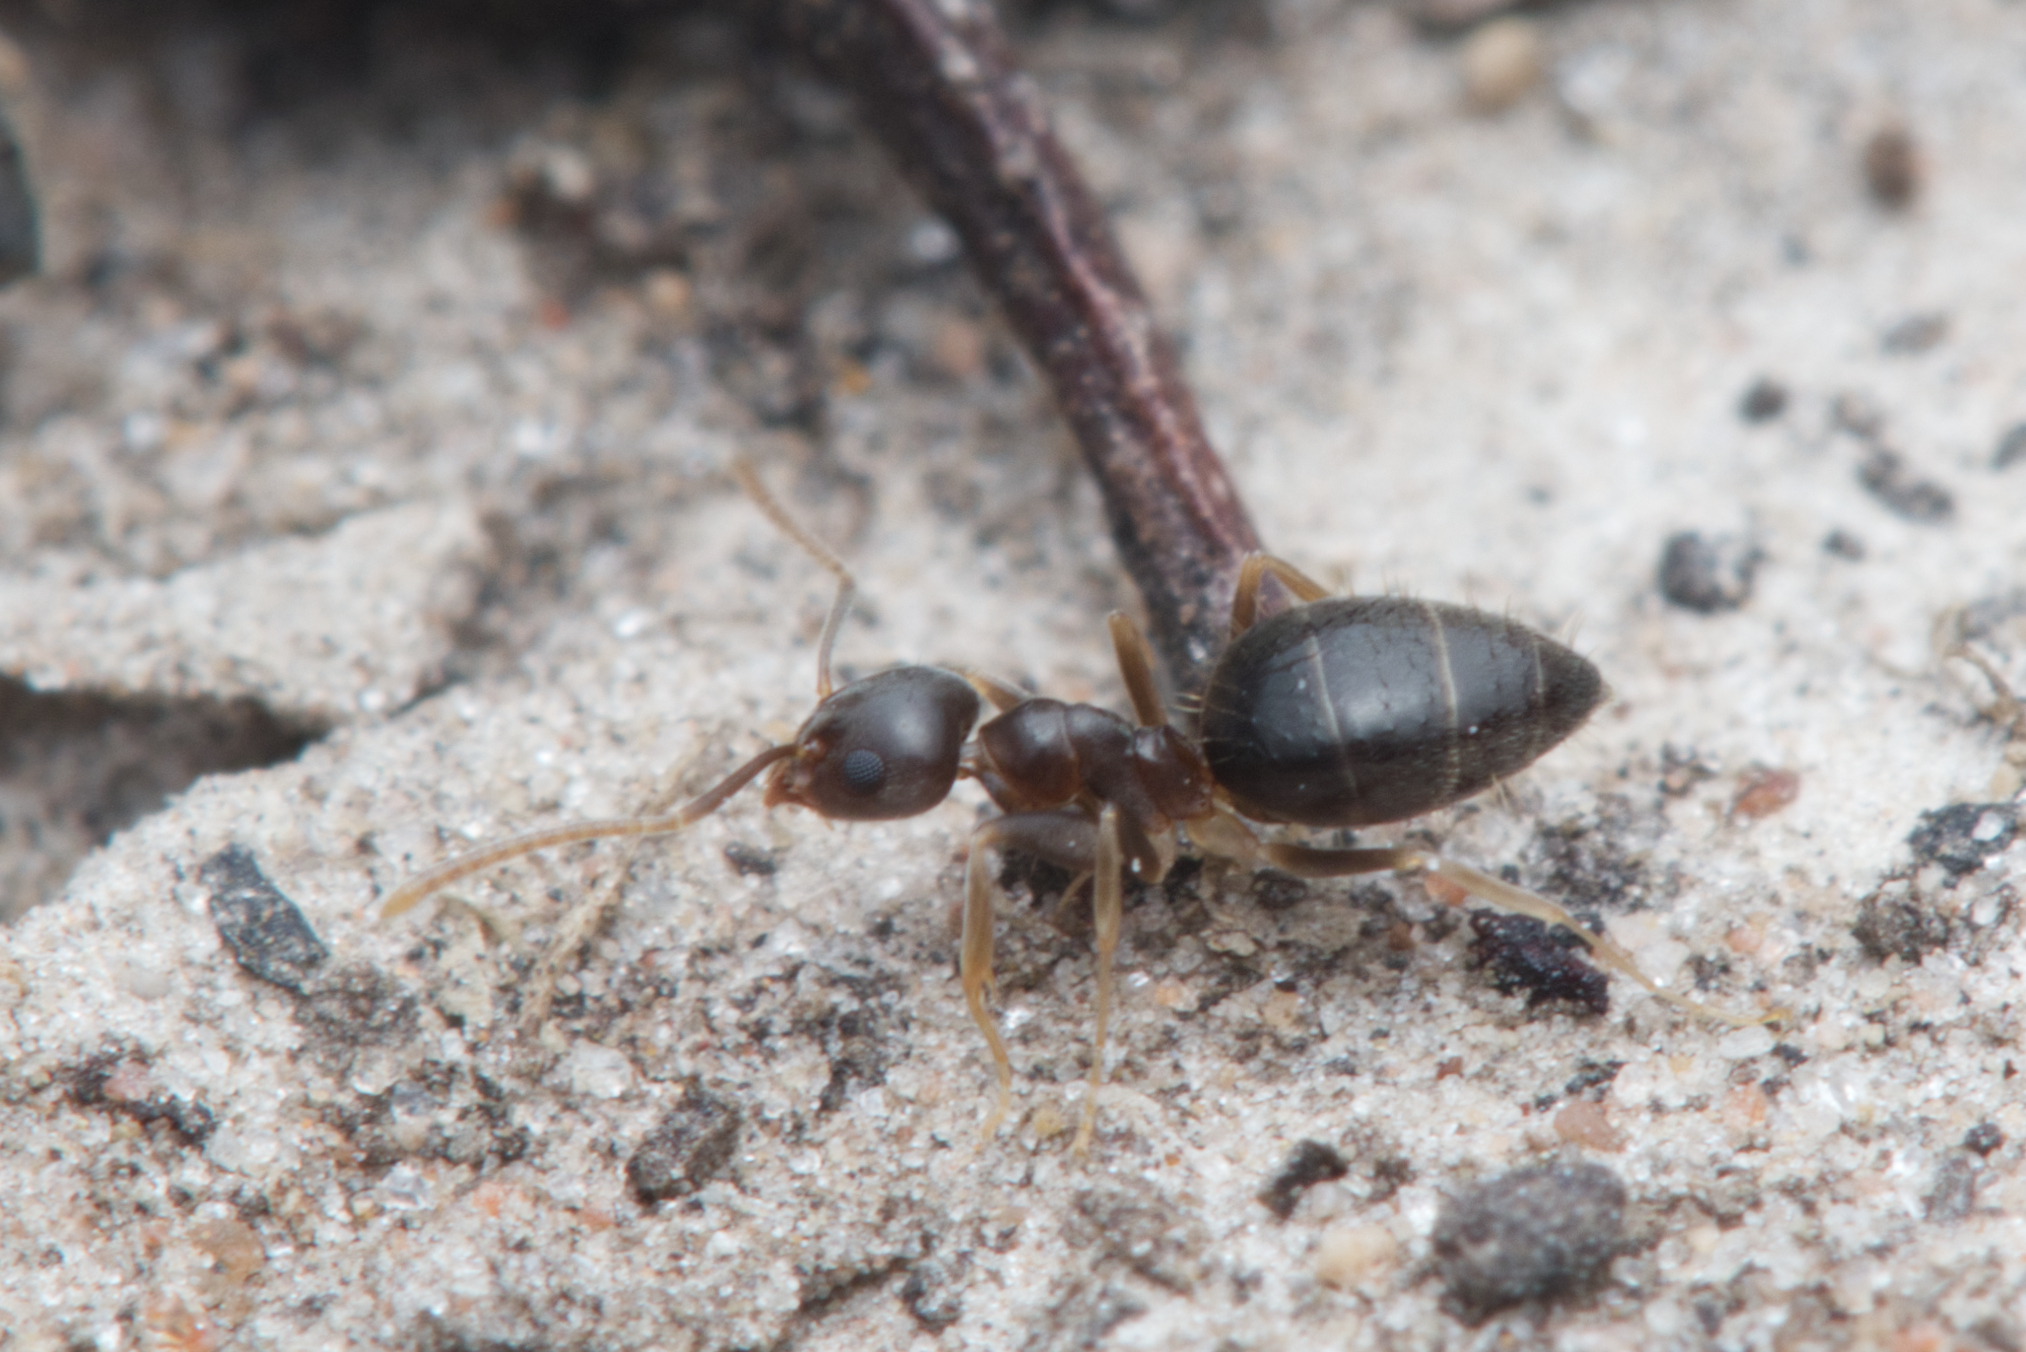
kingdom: Animalia
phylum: Arthropoda
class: Insecta
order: Hymenoptera
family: Formicidae
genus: Technomyrmex
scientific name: Technomyrmex
